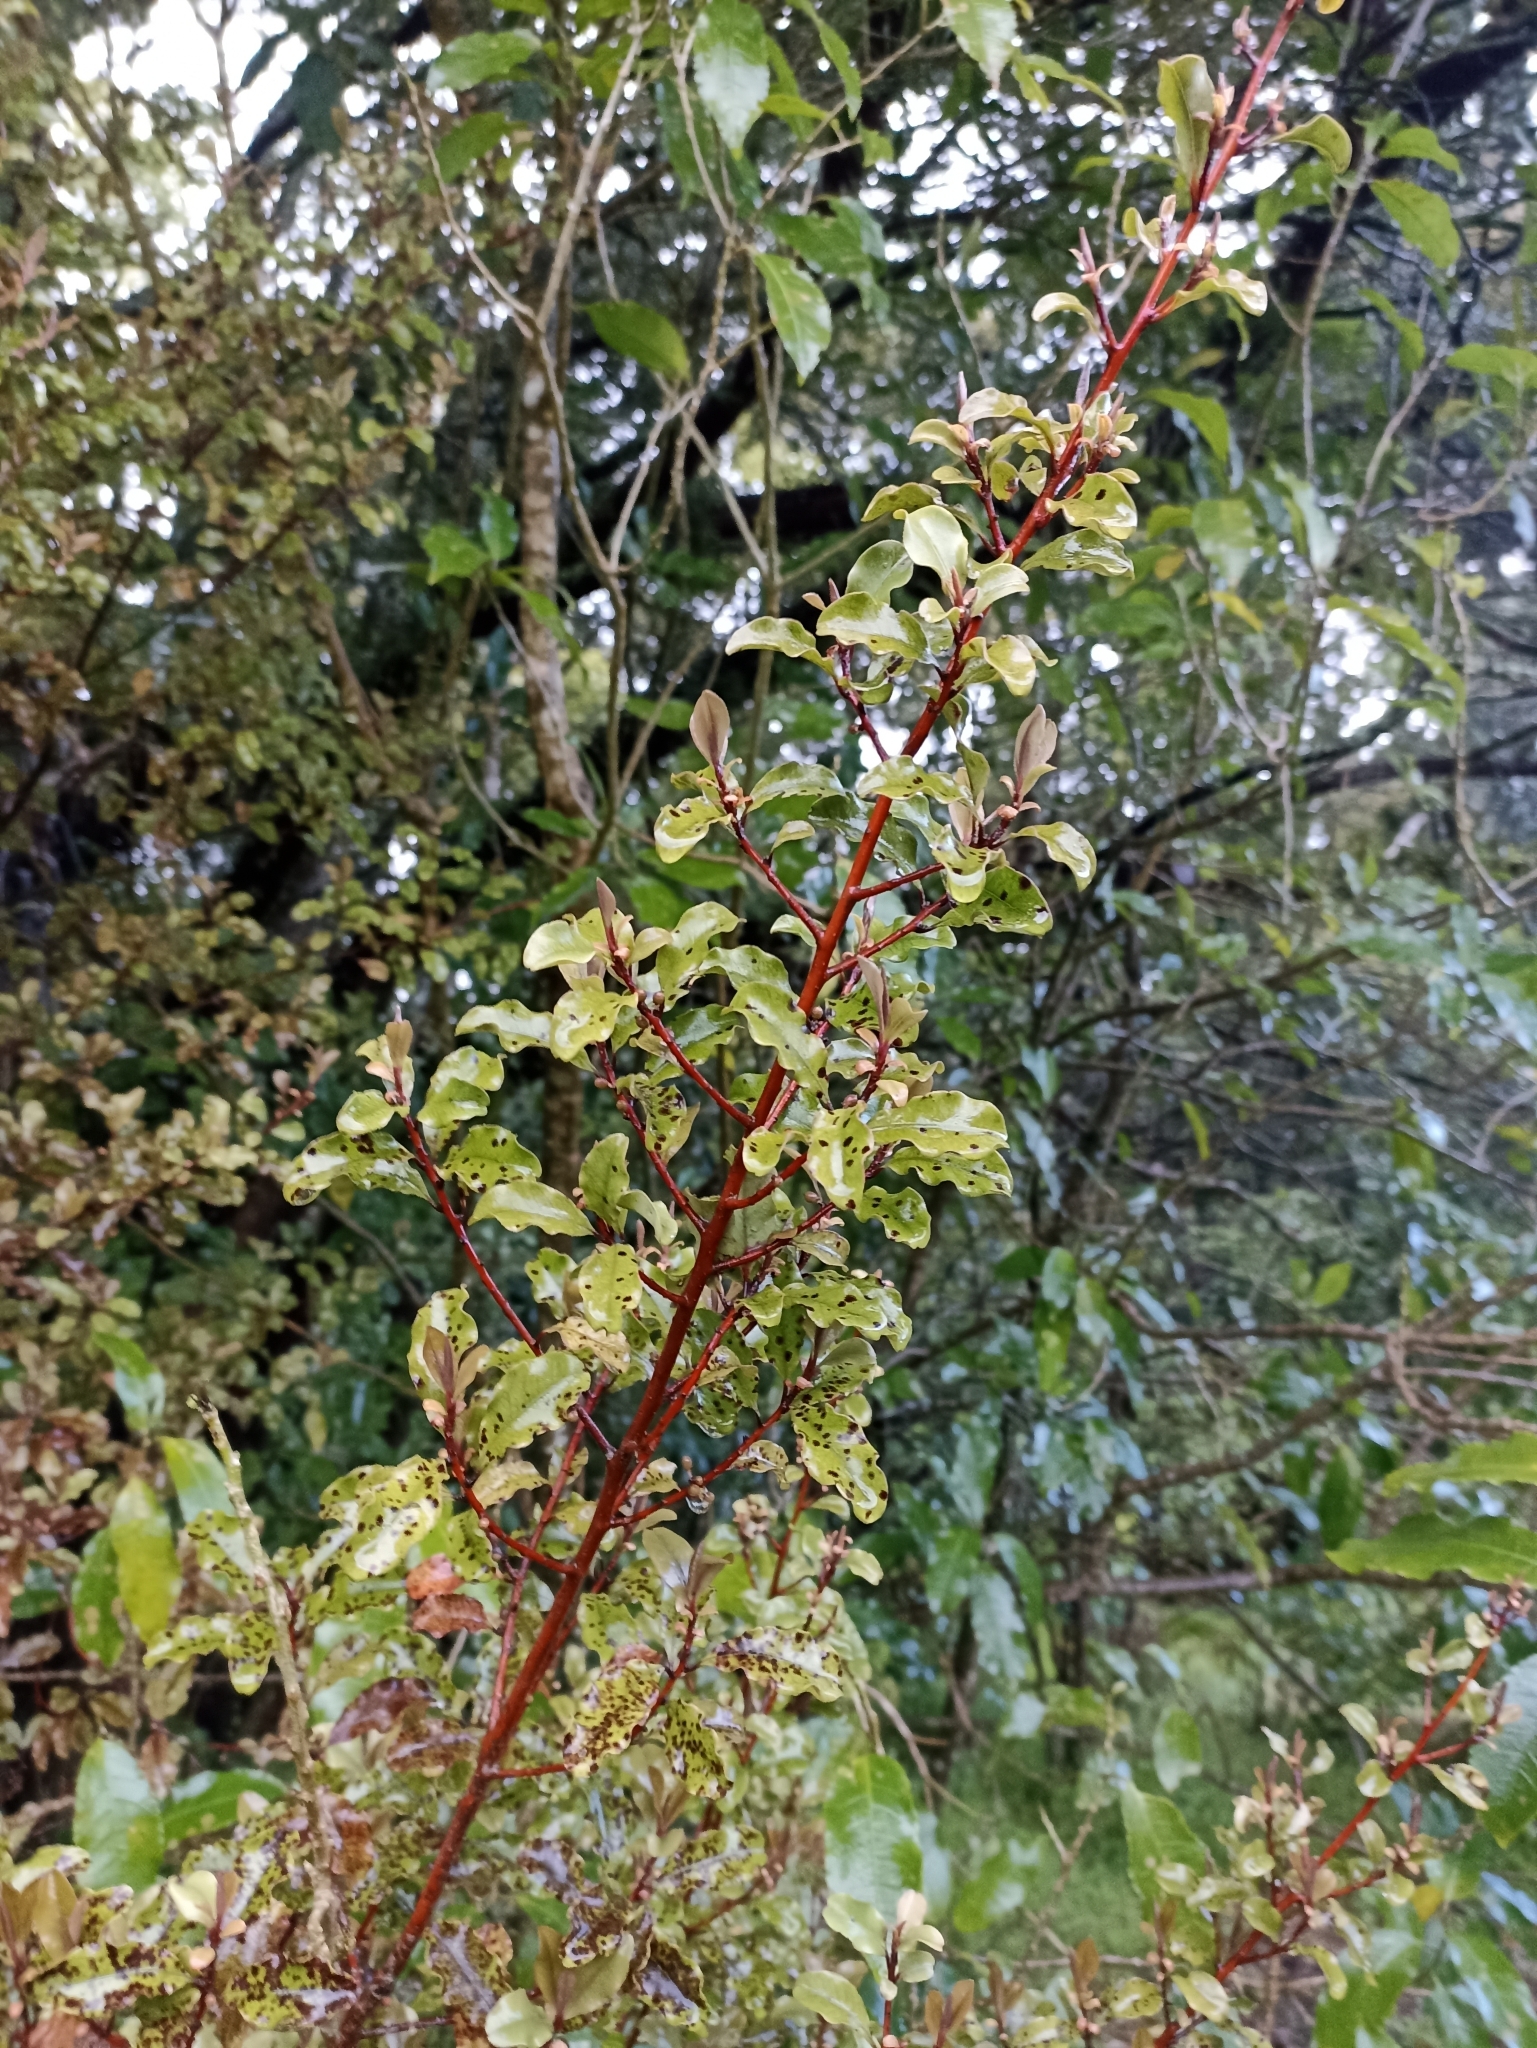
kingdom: Plantae
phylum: Tracheophyta
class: Magnoliopsida
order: Ericales
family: Primulaceae
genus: Myrsine
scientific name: Myrsine australis
